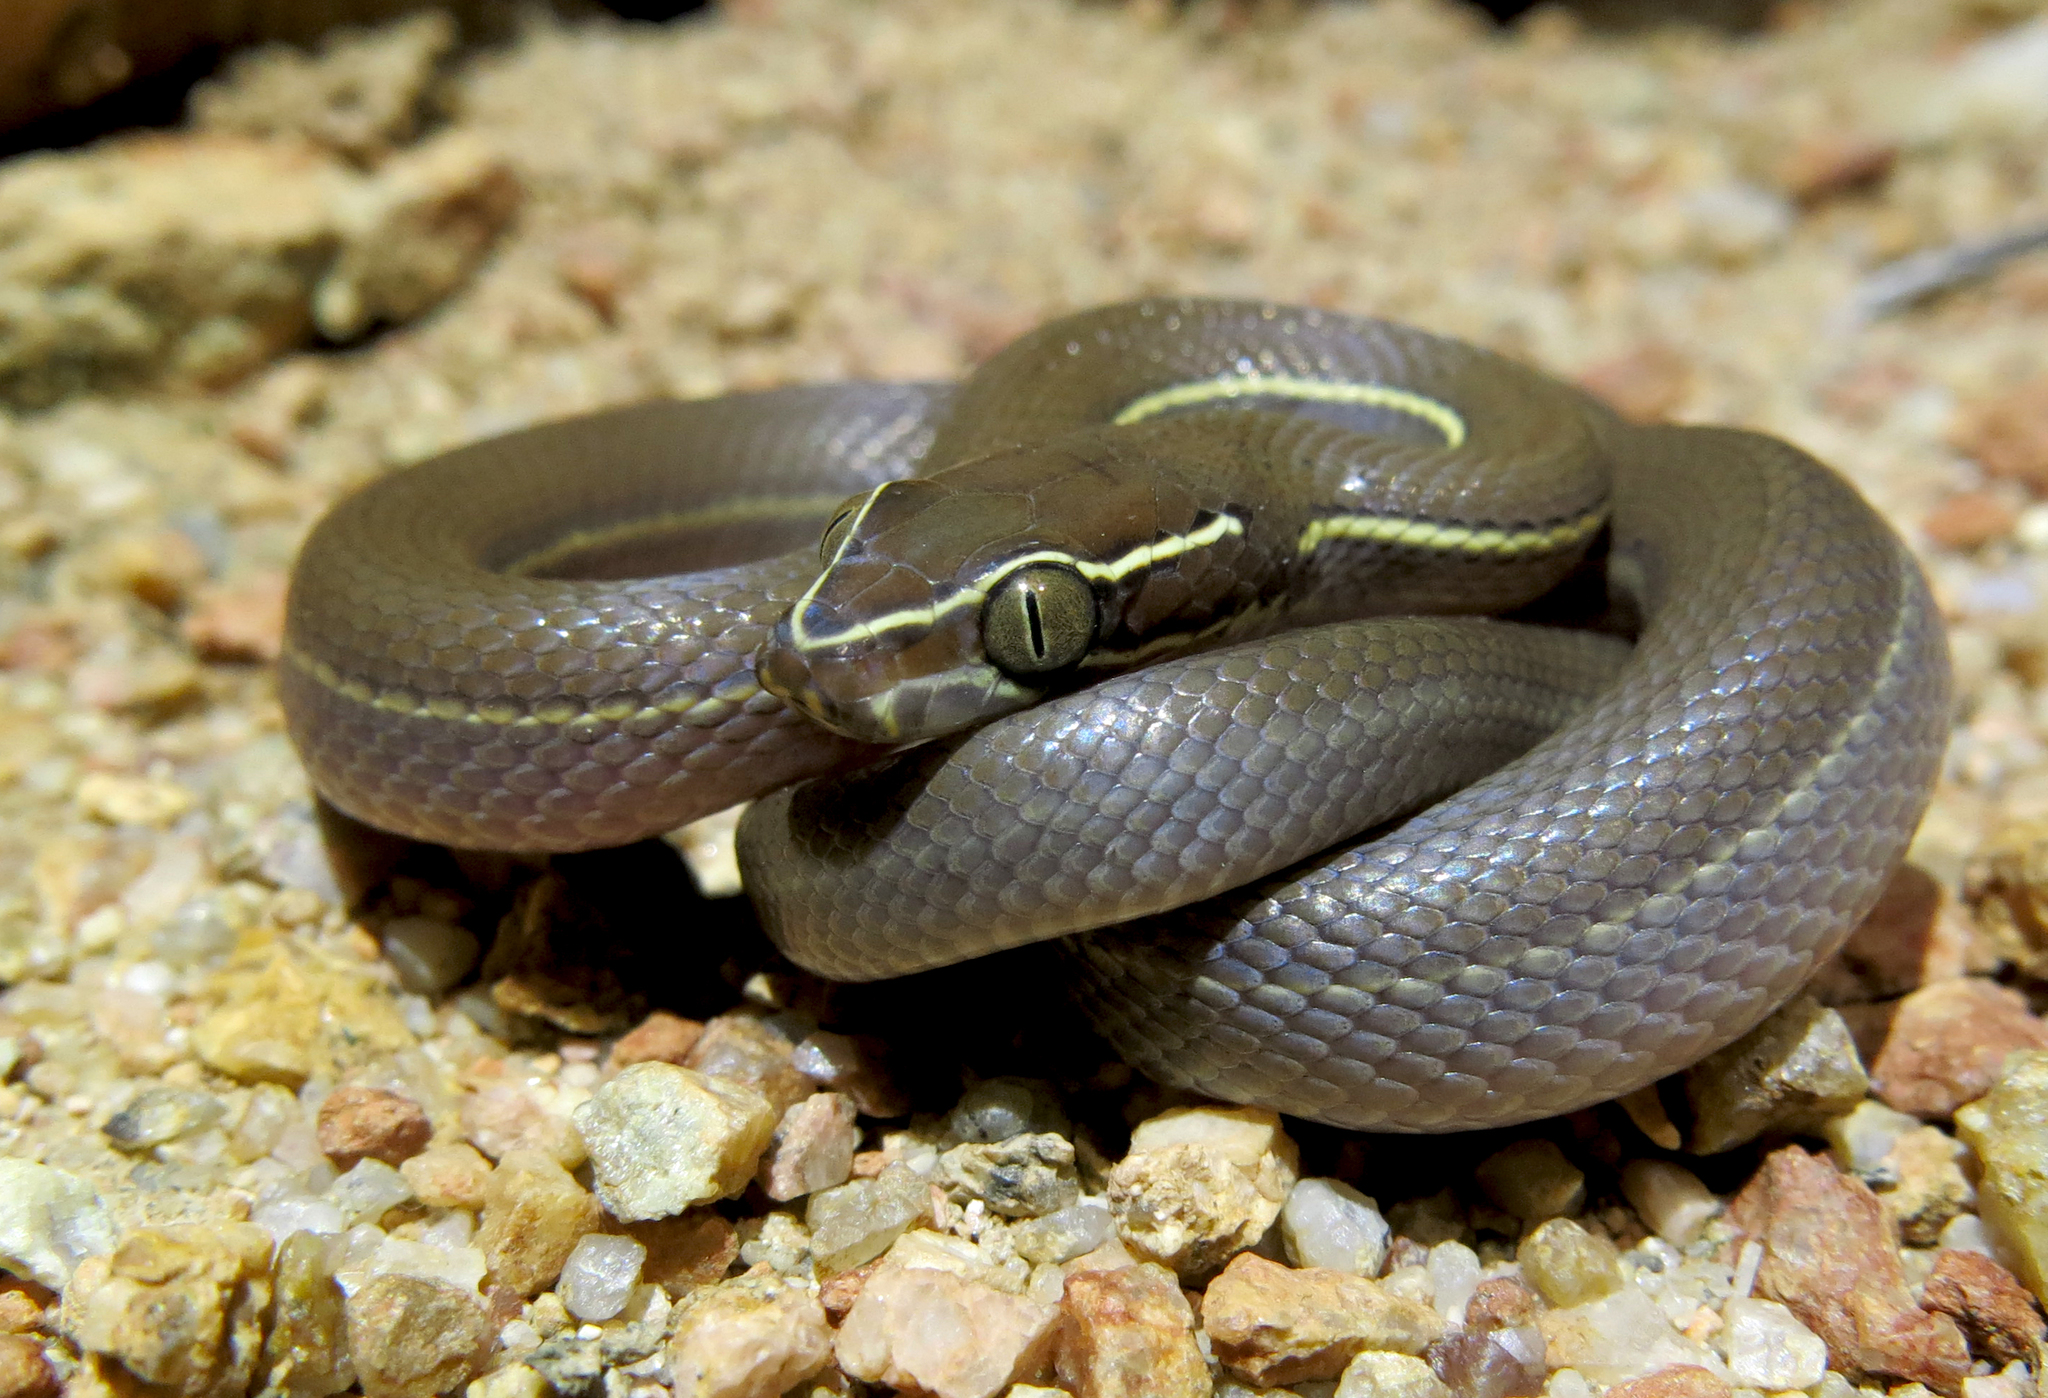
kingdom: Animalia
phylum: Chordata
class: Squamata
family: Lamprophiidae
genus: Boaedon
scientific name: Boaedon capensis
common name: Brown house snake
